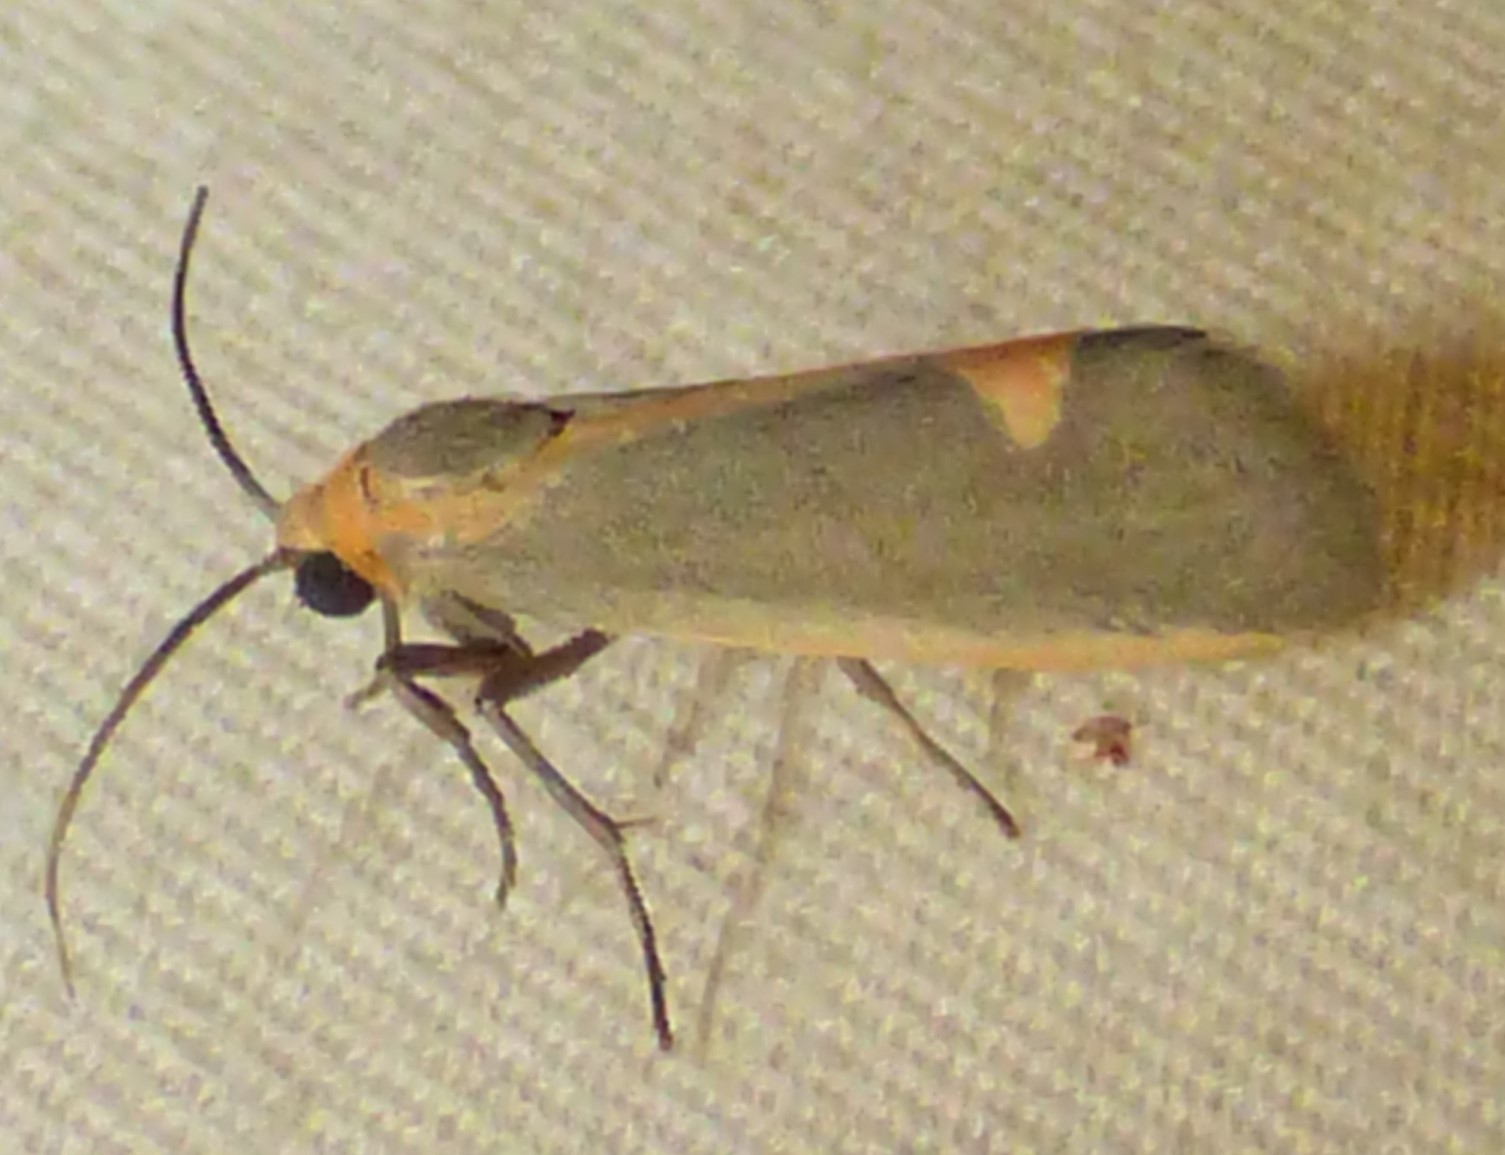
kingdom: Animalia
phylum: Arthropoda
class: Insecta
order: Lepidoptera
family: Erebidae
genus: Cisthene
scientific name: Cisthene plumbea
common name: Lead colored lichen moth
